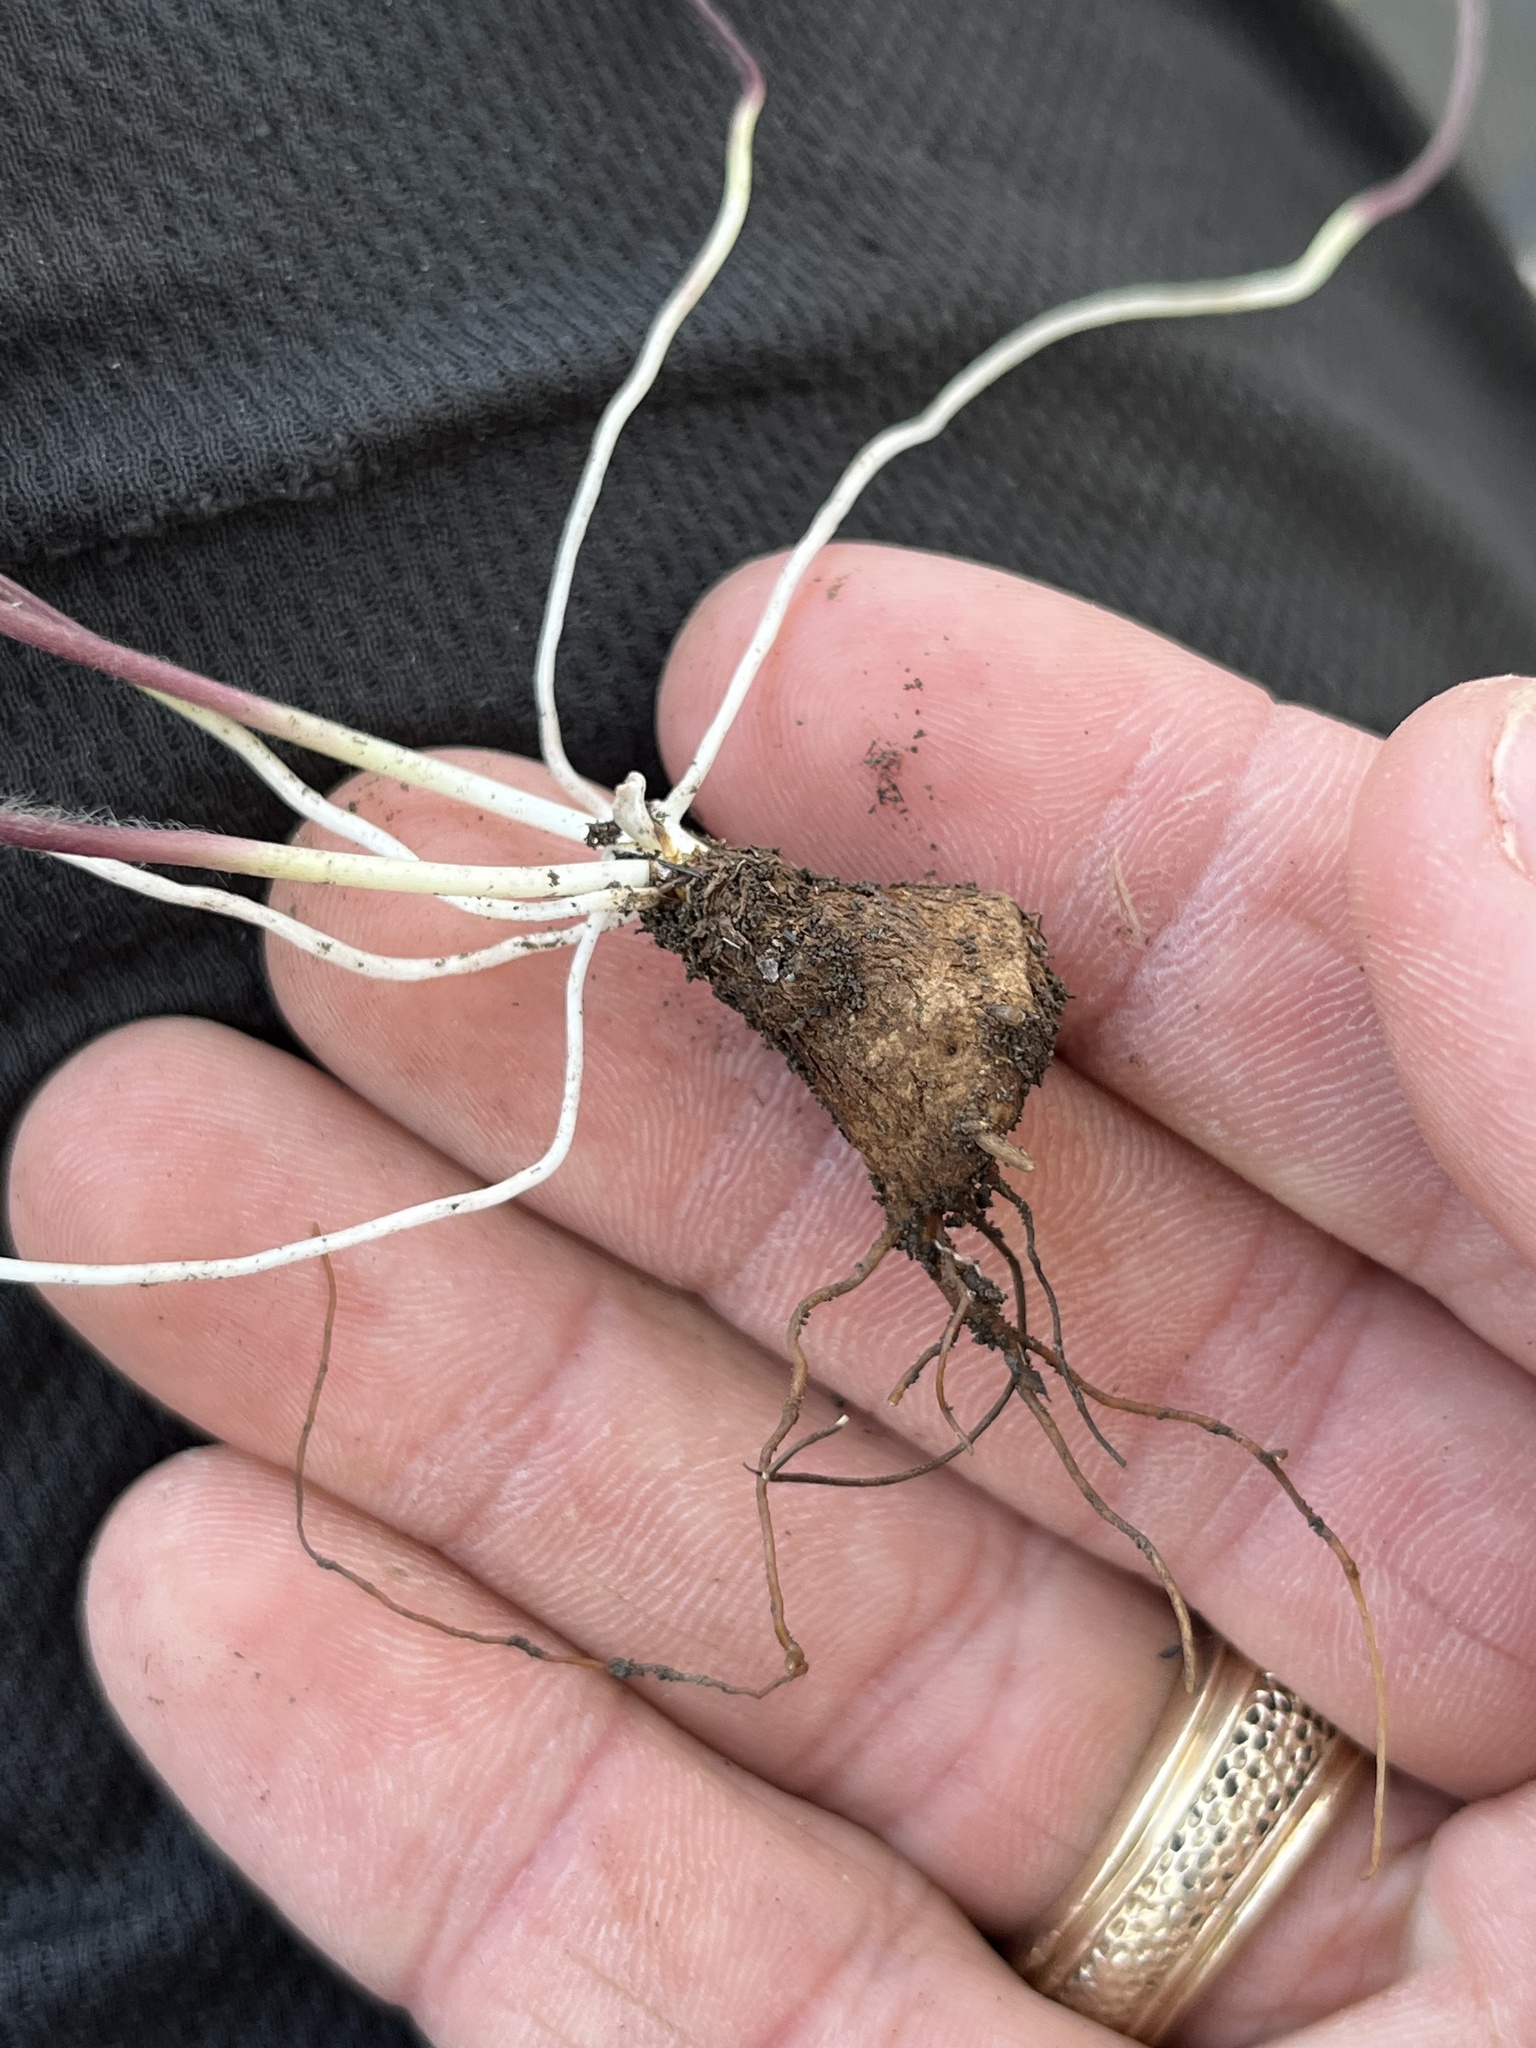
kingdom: Plantae
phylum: Tracheophyta
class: Magnoliopsida
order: Ranunculales
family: Ranunculaceae
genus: Anemone
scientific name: Anemone berlandieri
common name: Ten-petal anemone
